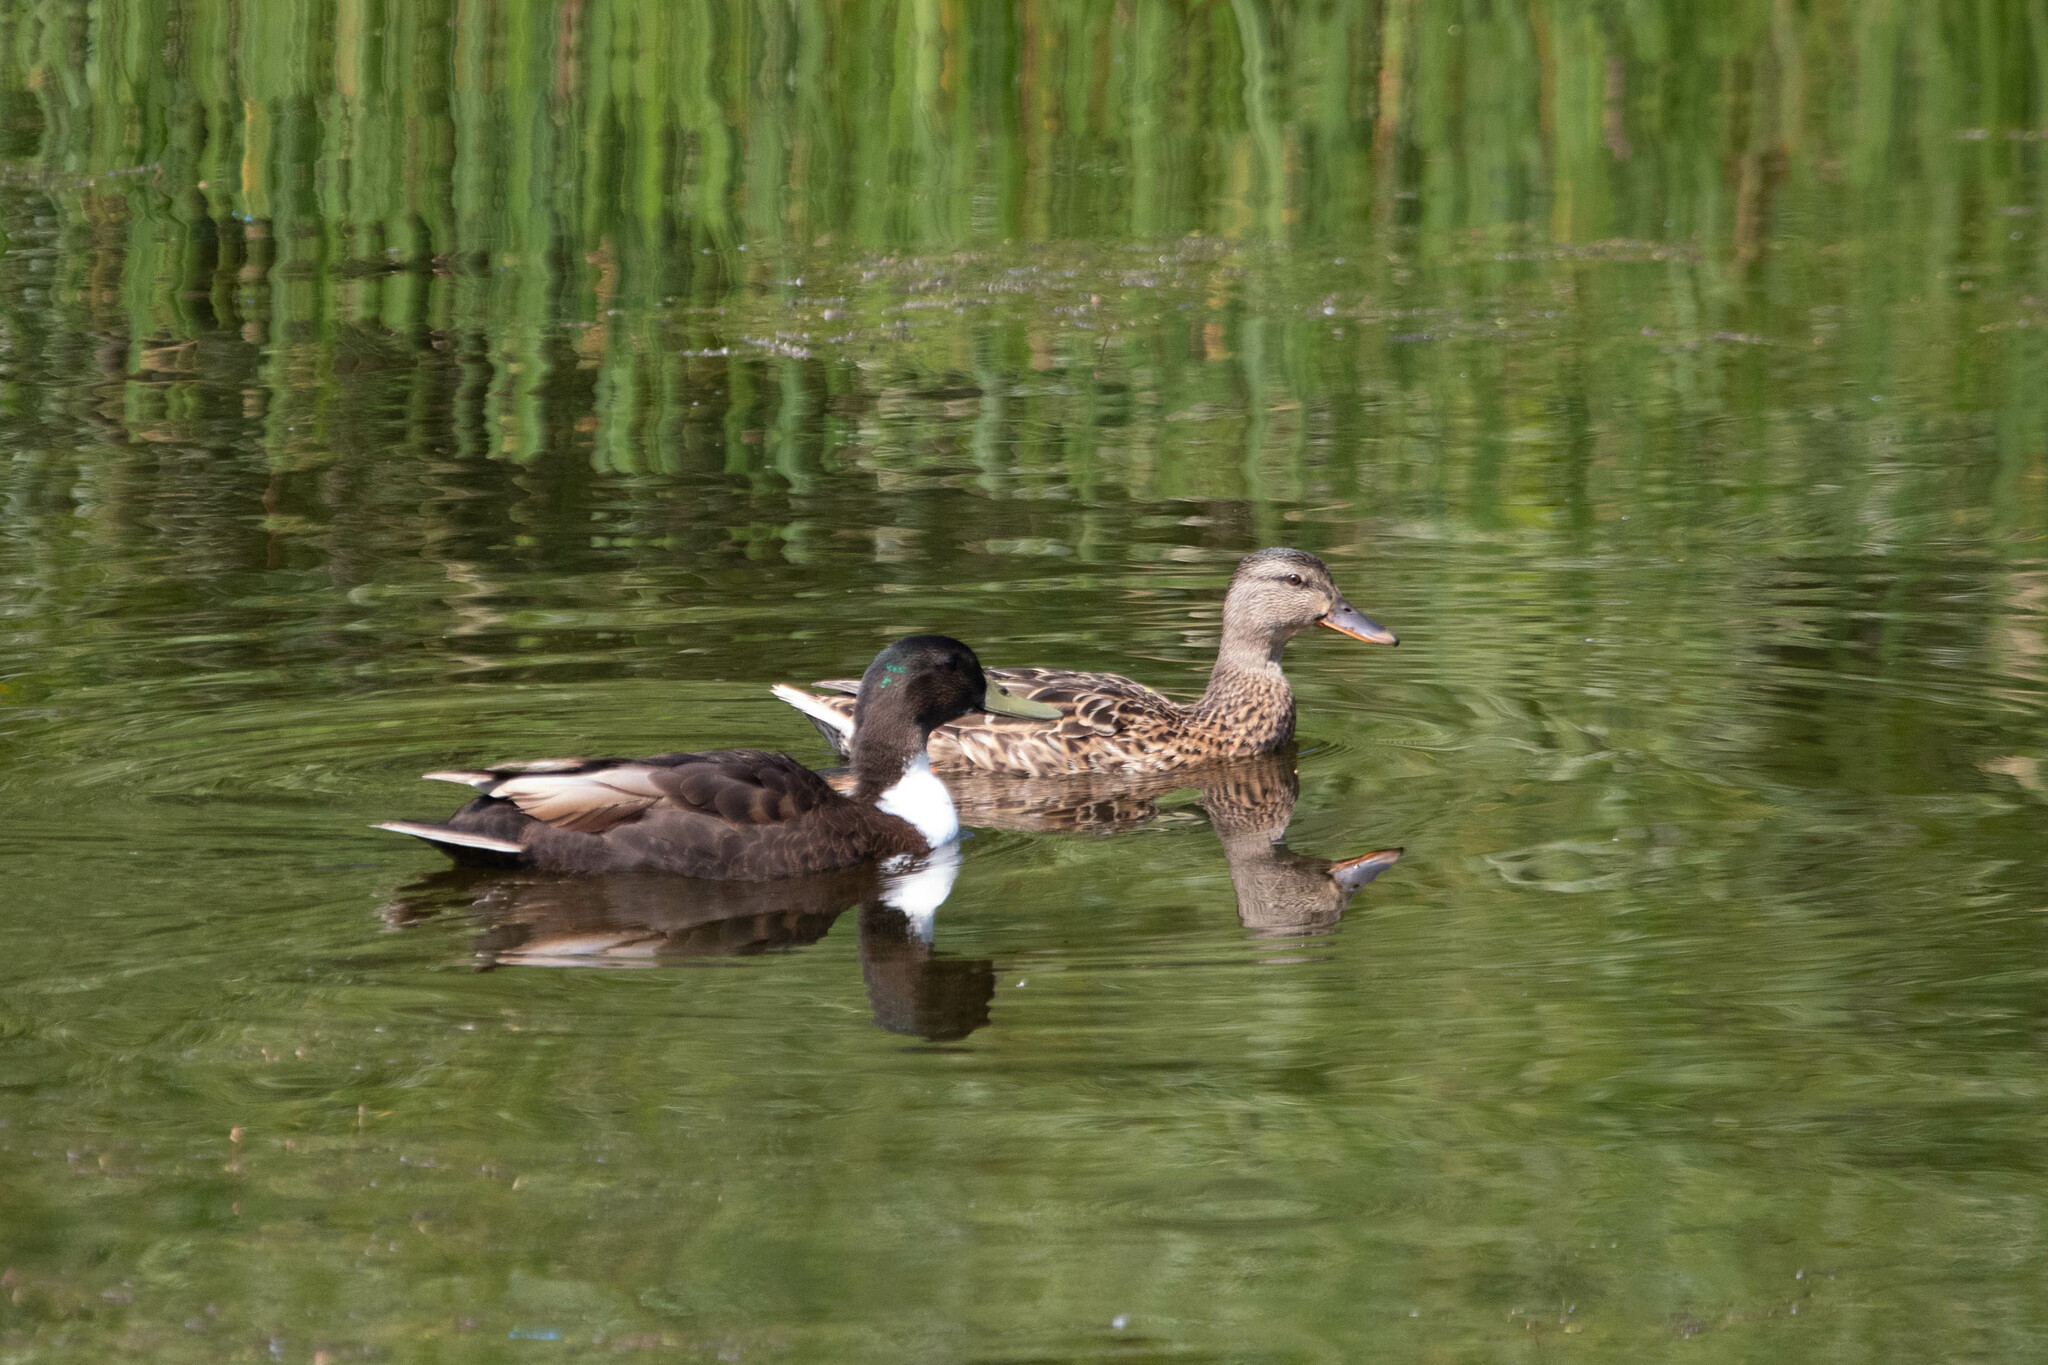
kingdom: Animalia
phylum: Chordata
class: Aves
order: Anseriformes
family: Anatidae
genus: Anas
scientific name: Anas platyrhynchos
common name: Mallard
